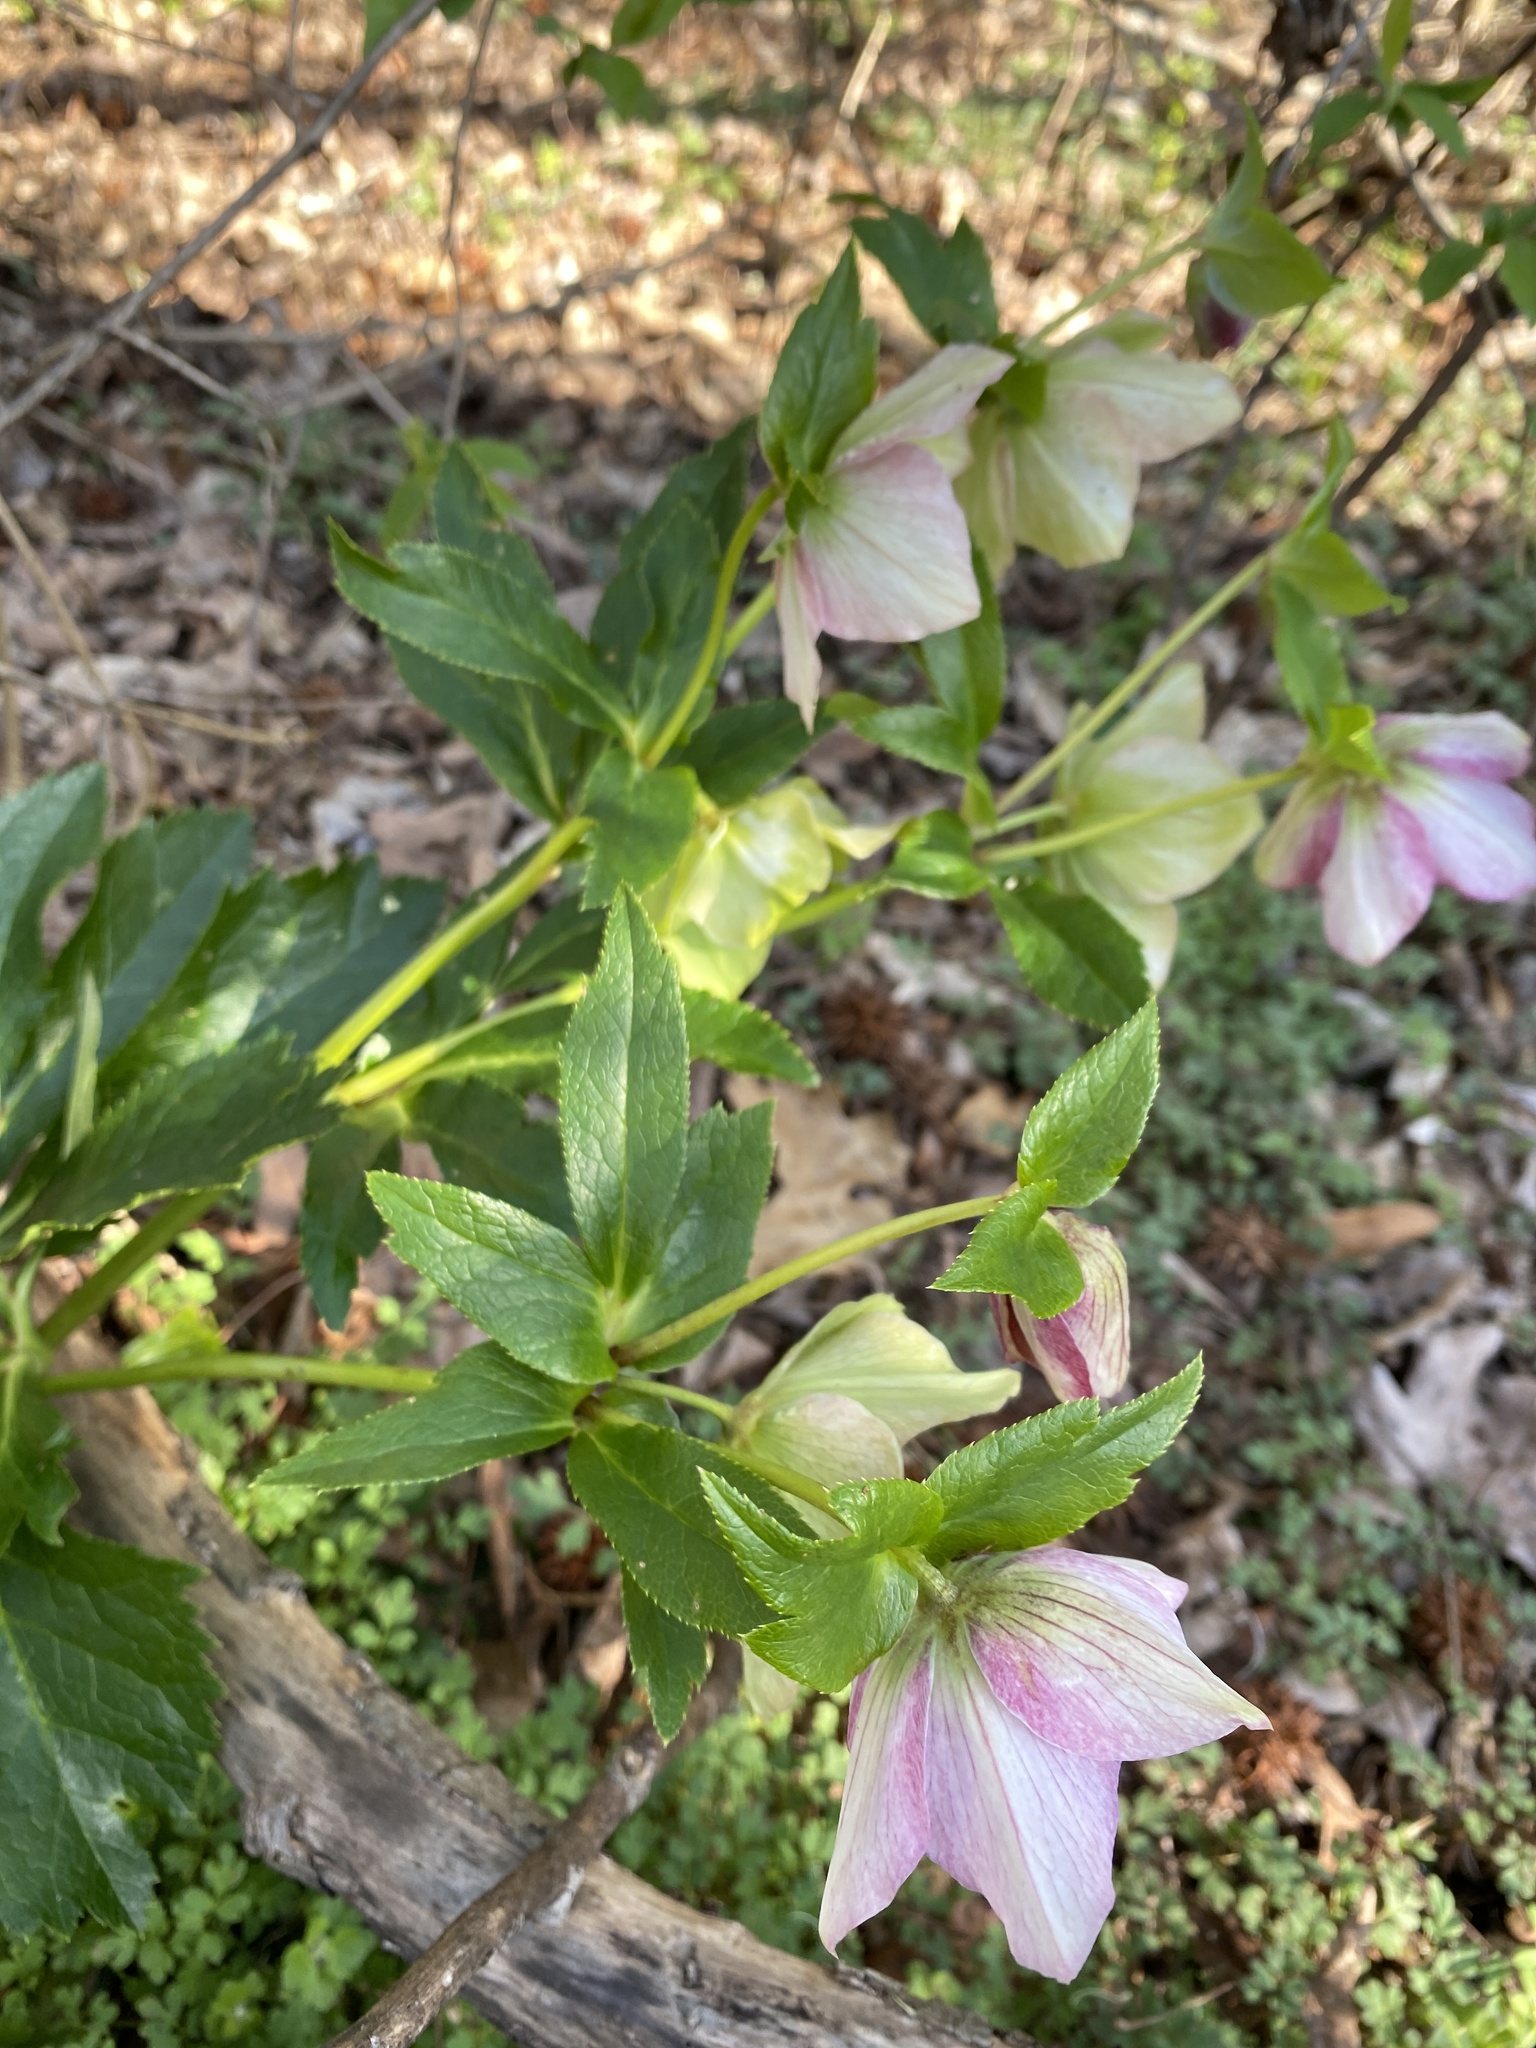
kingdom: Plantae
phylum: Tracheophyta
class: Magnoliopsida
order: Ranunculales
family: Ranunculaceae
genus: Helleborus
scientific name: Helleborus orientalis
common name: Lenten-rose
